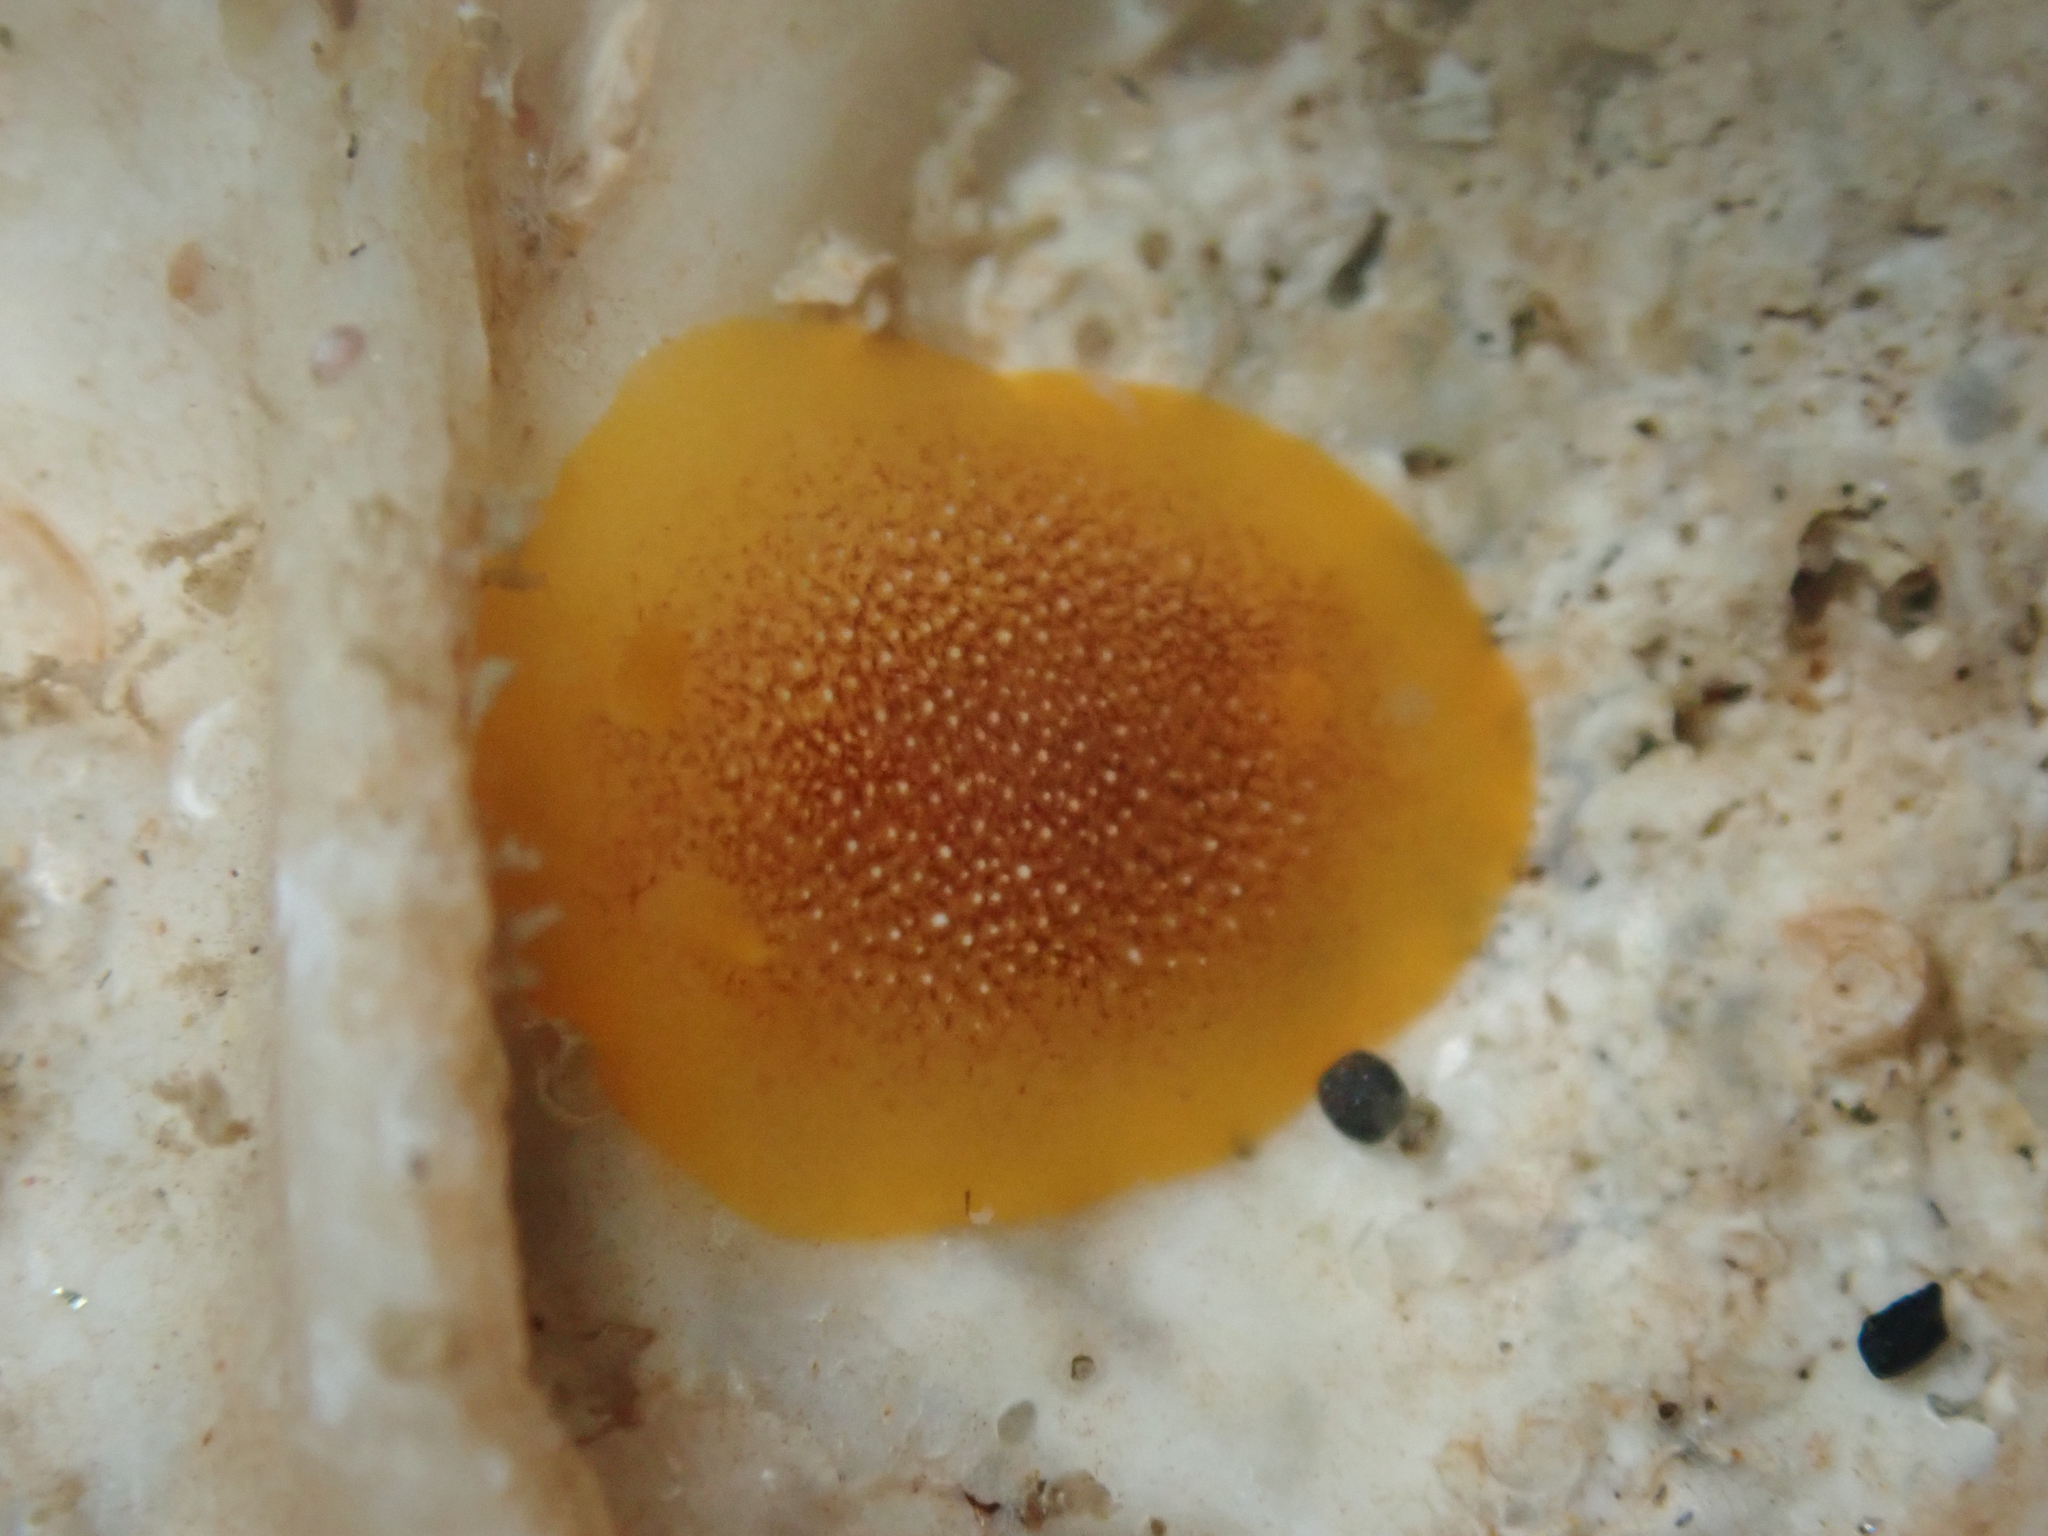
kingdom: Animalia
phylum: Mollusca
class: Gastropoda
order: Nudibranchia
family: Dendrodorididae
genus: Doriopsilla
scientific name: Doriopsilla gemela
